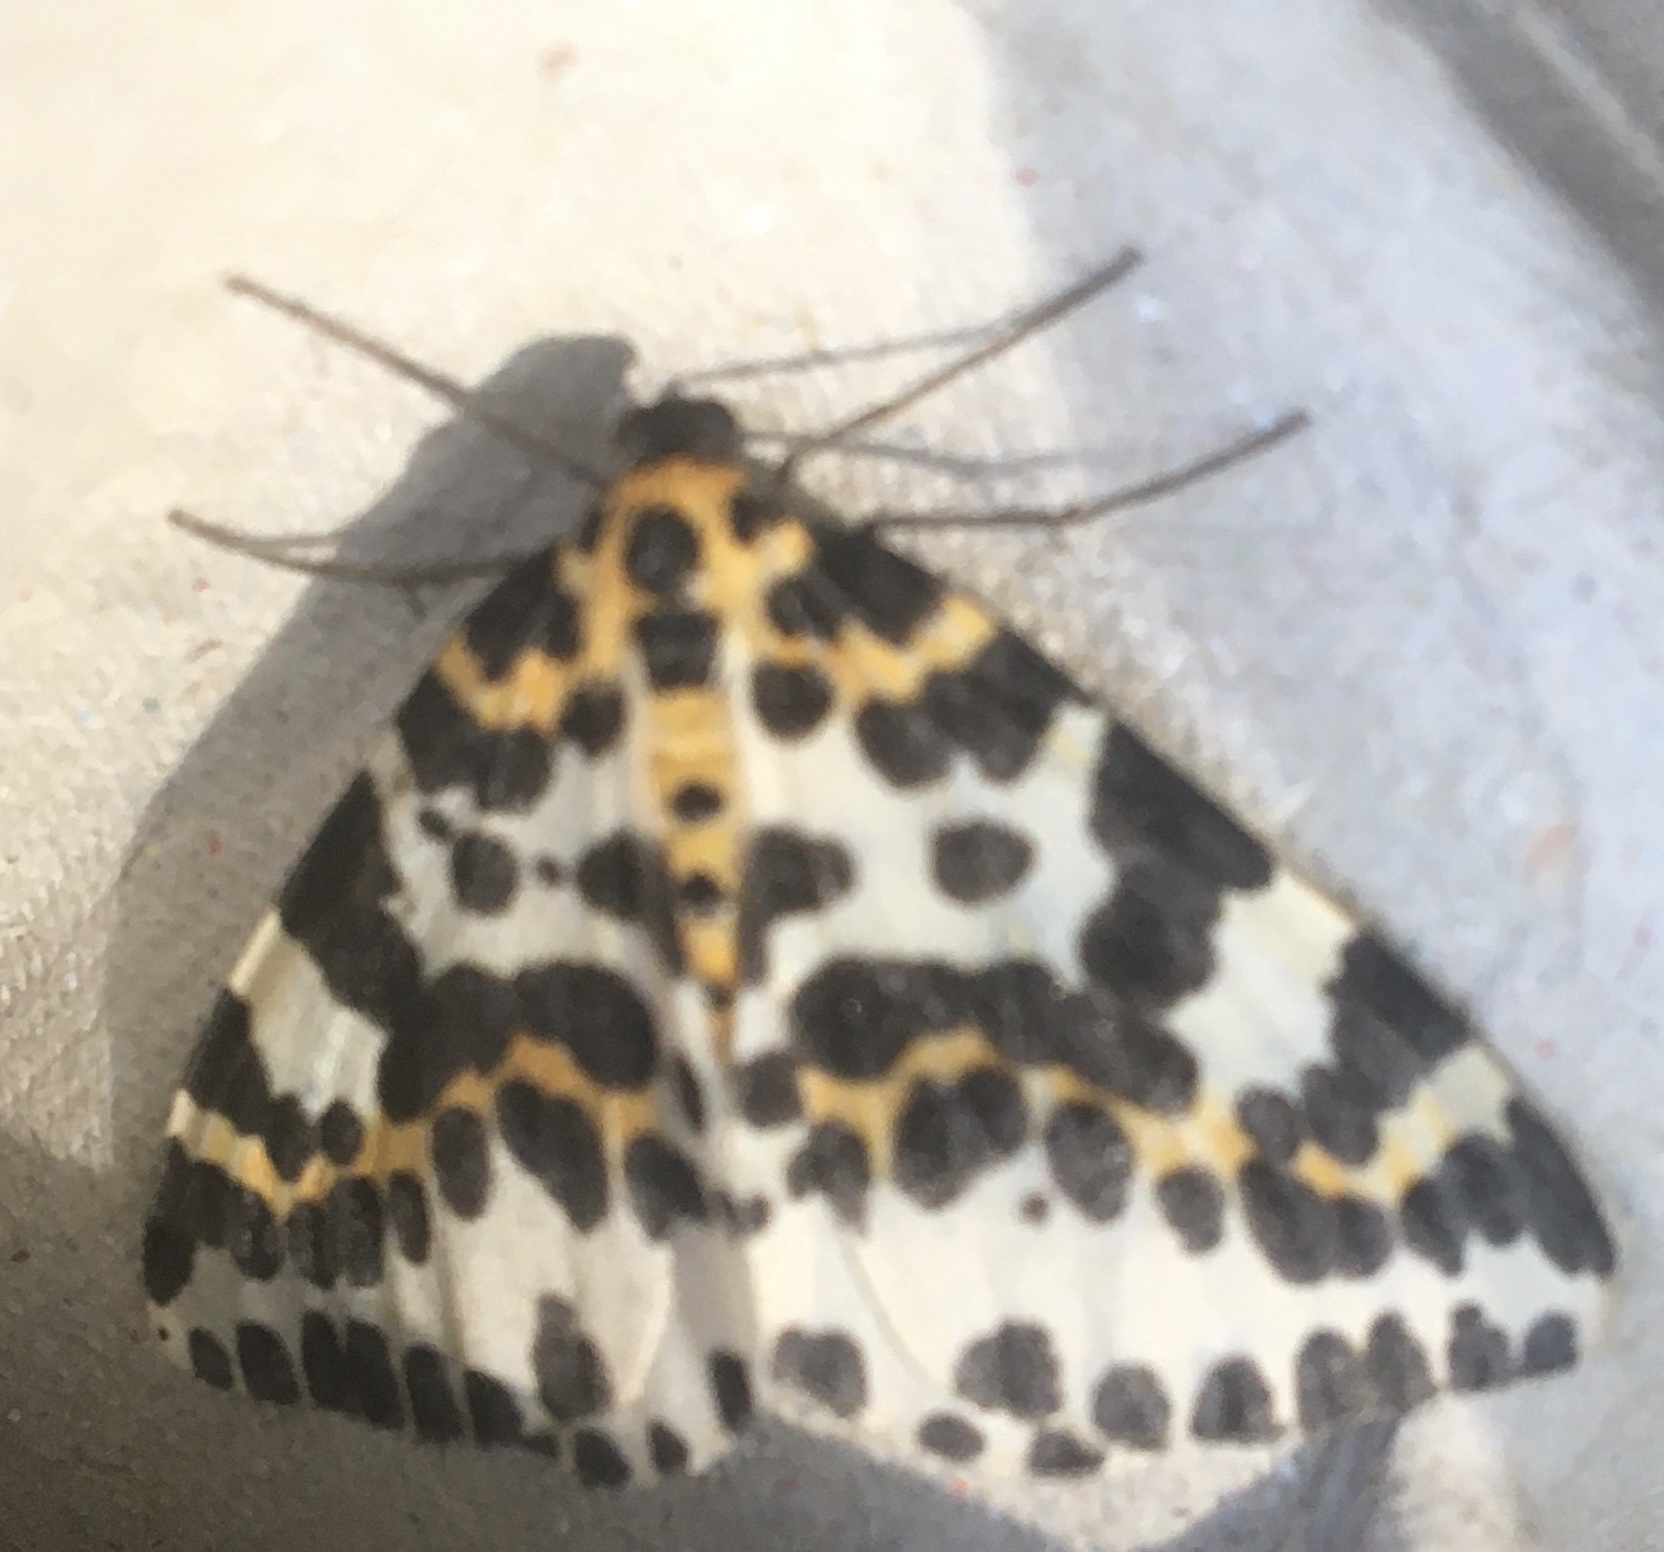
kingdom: Animalia
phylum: Arthropoda
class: Insecta
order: Lepidoptera
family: Geometridae
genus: Abraxas
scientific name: Abraxas grossulariata
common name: Magpie
